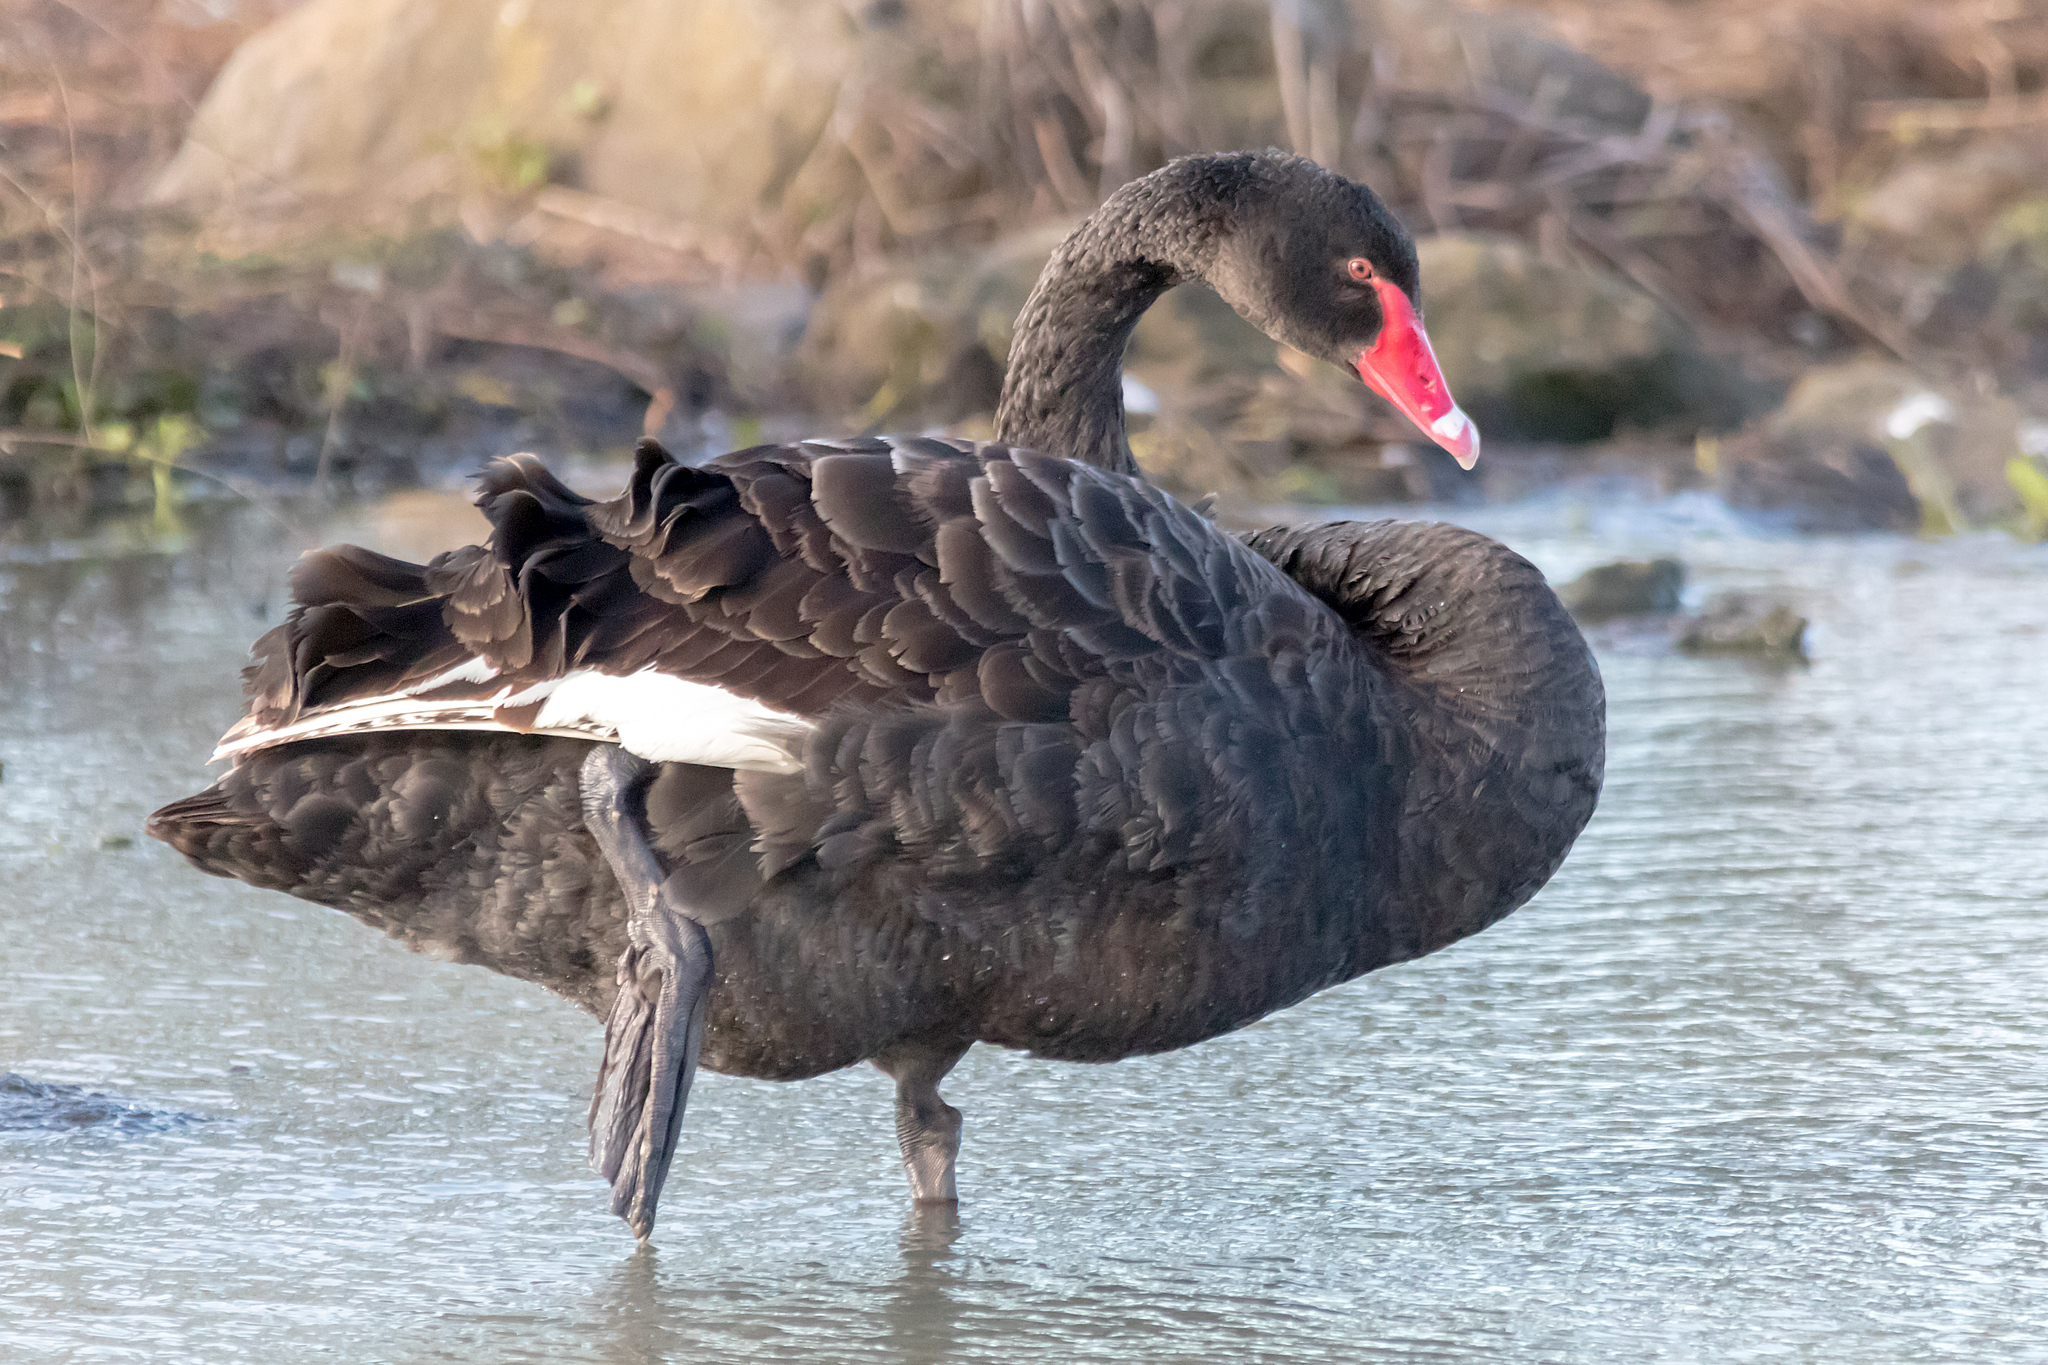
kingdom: Animalia
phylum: Chordata
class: Aves
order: Anseriformes
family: Anatidae
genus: Cygnus
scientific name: Cygnus atratus
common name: Black swan
